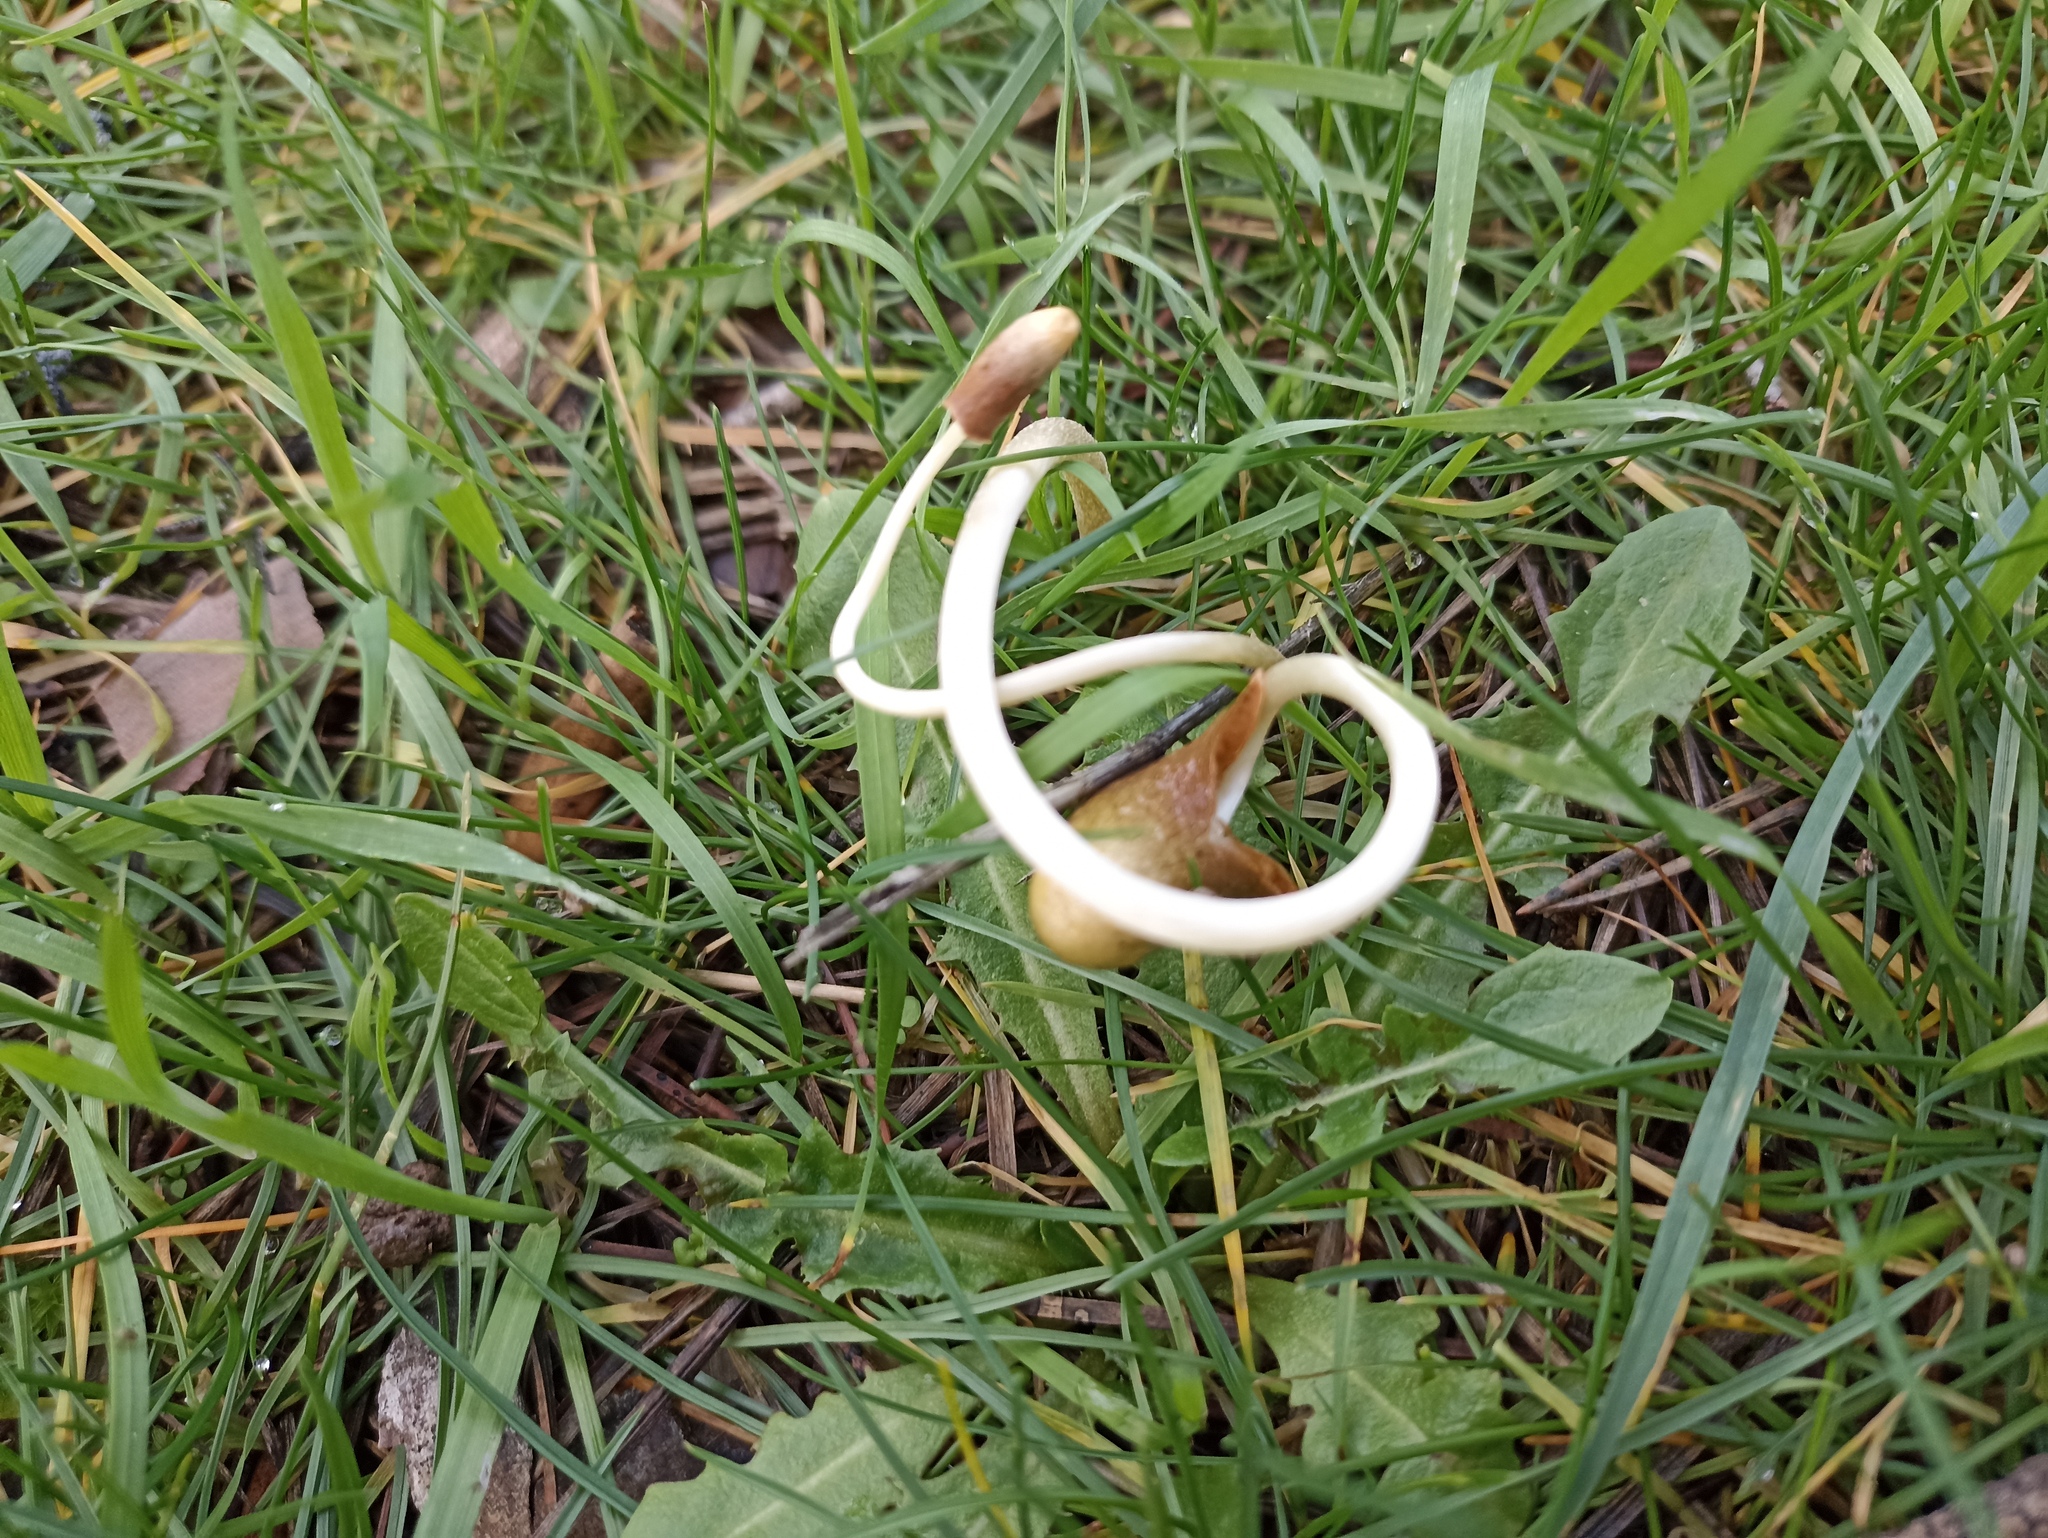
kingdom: Fungi
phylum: Basidiomycota
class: Agaricomycetes
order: Agaricales
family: Bolbitiaceae
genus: Conocybe
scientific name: Conocybe deliquescens
